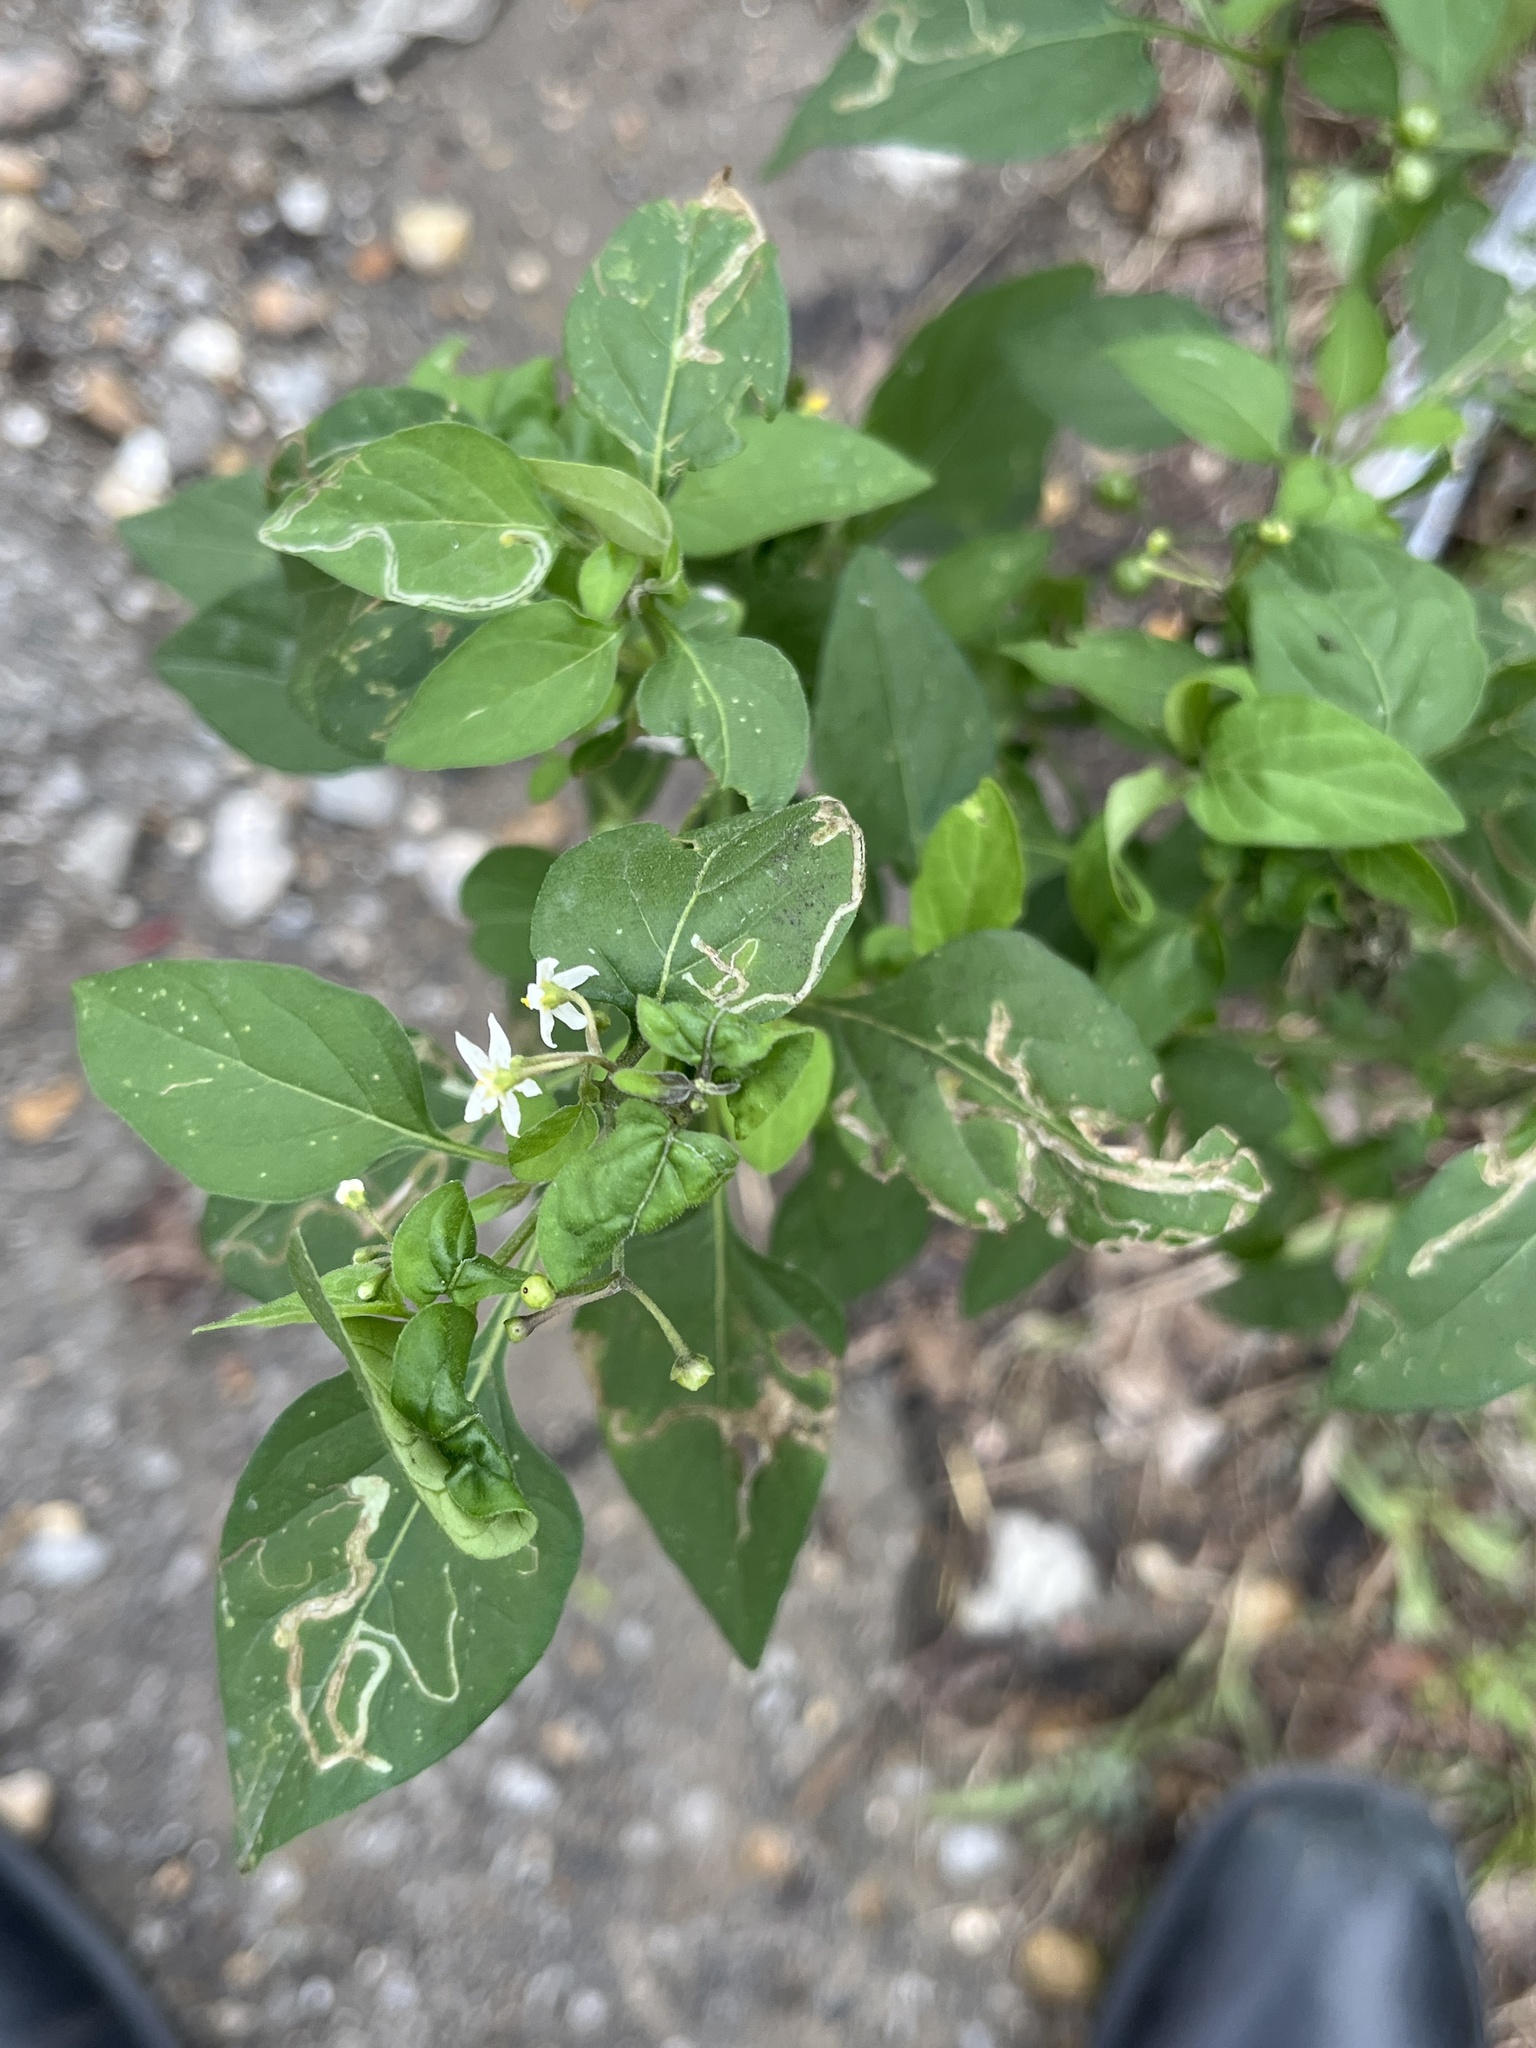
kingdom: Plantae
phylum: Tracheophyta
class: Magnoliopsida
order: Solanales
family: Solanaceae
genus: Solanum
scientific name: Solanum americanum
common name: American black nightshade
